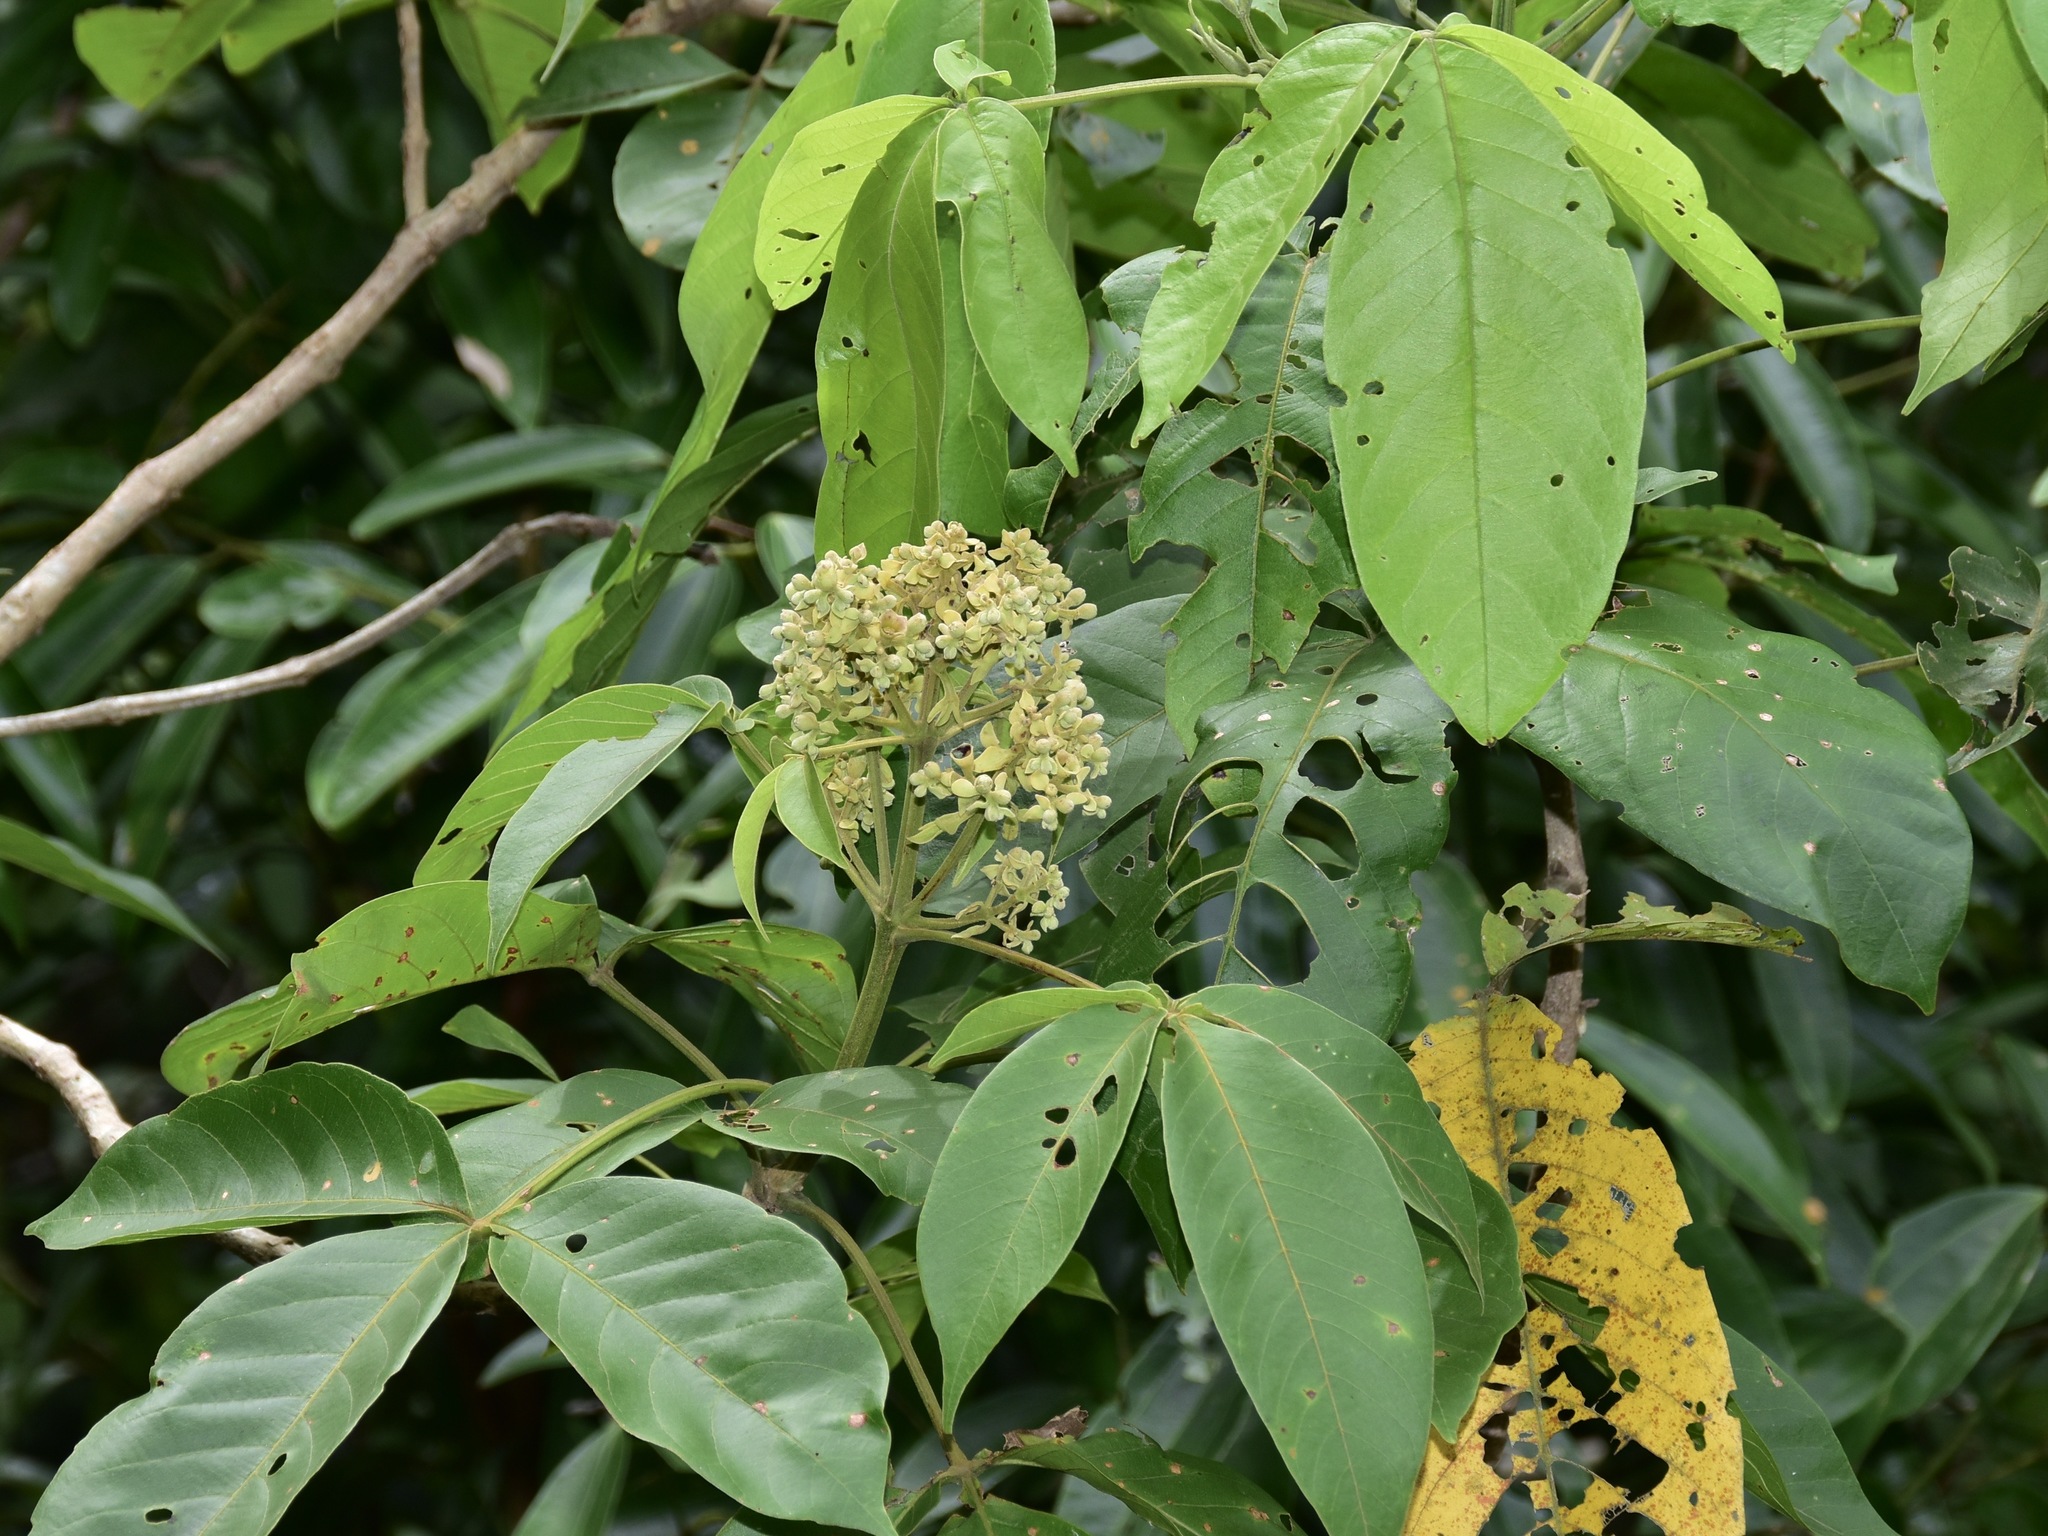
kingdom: Plantae
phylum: Tracheophyta
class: Magnoliopsida
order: Lamiales
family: Lamiaceae
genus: Vitex
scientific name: Vitex pinnata
